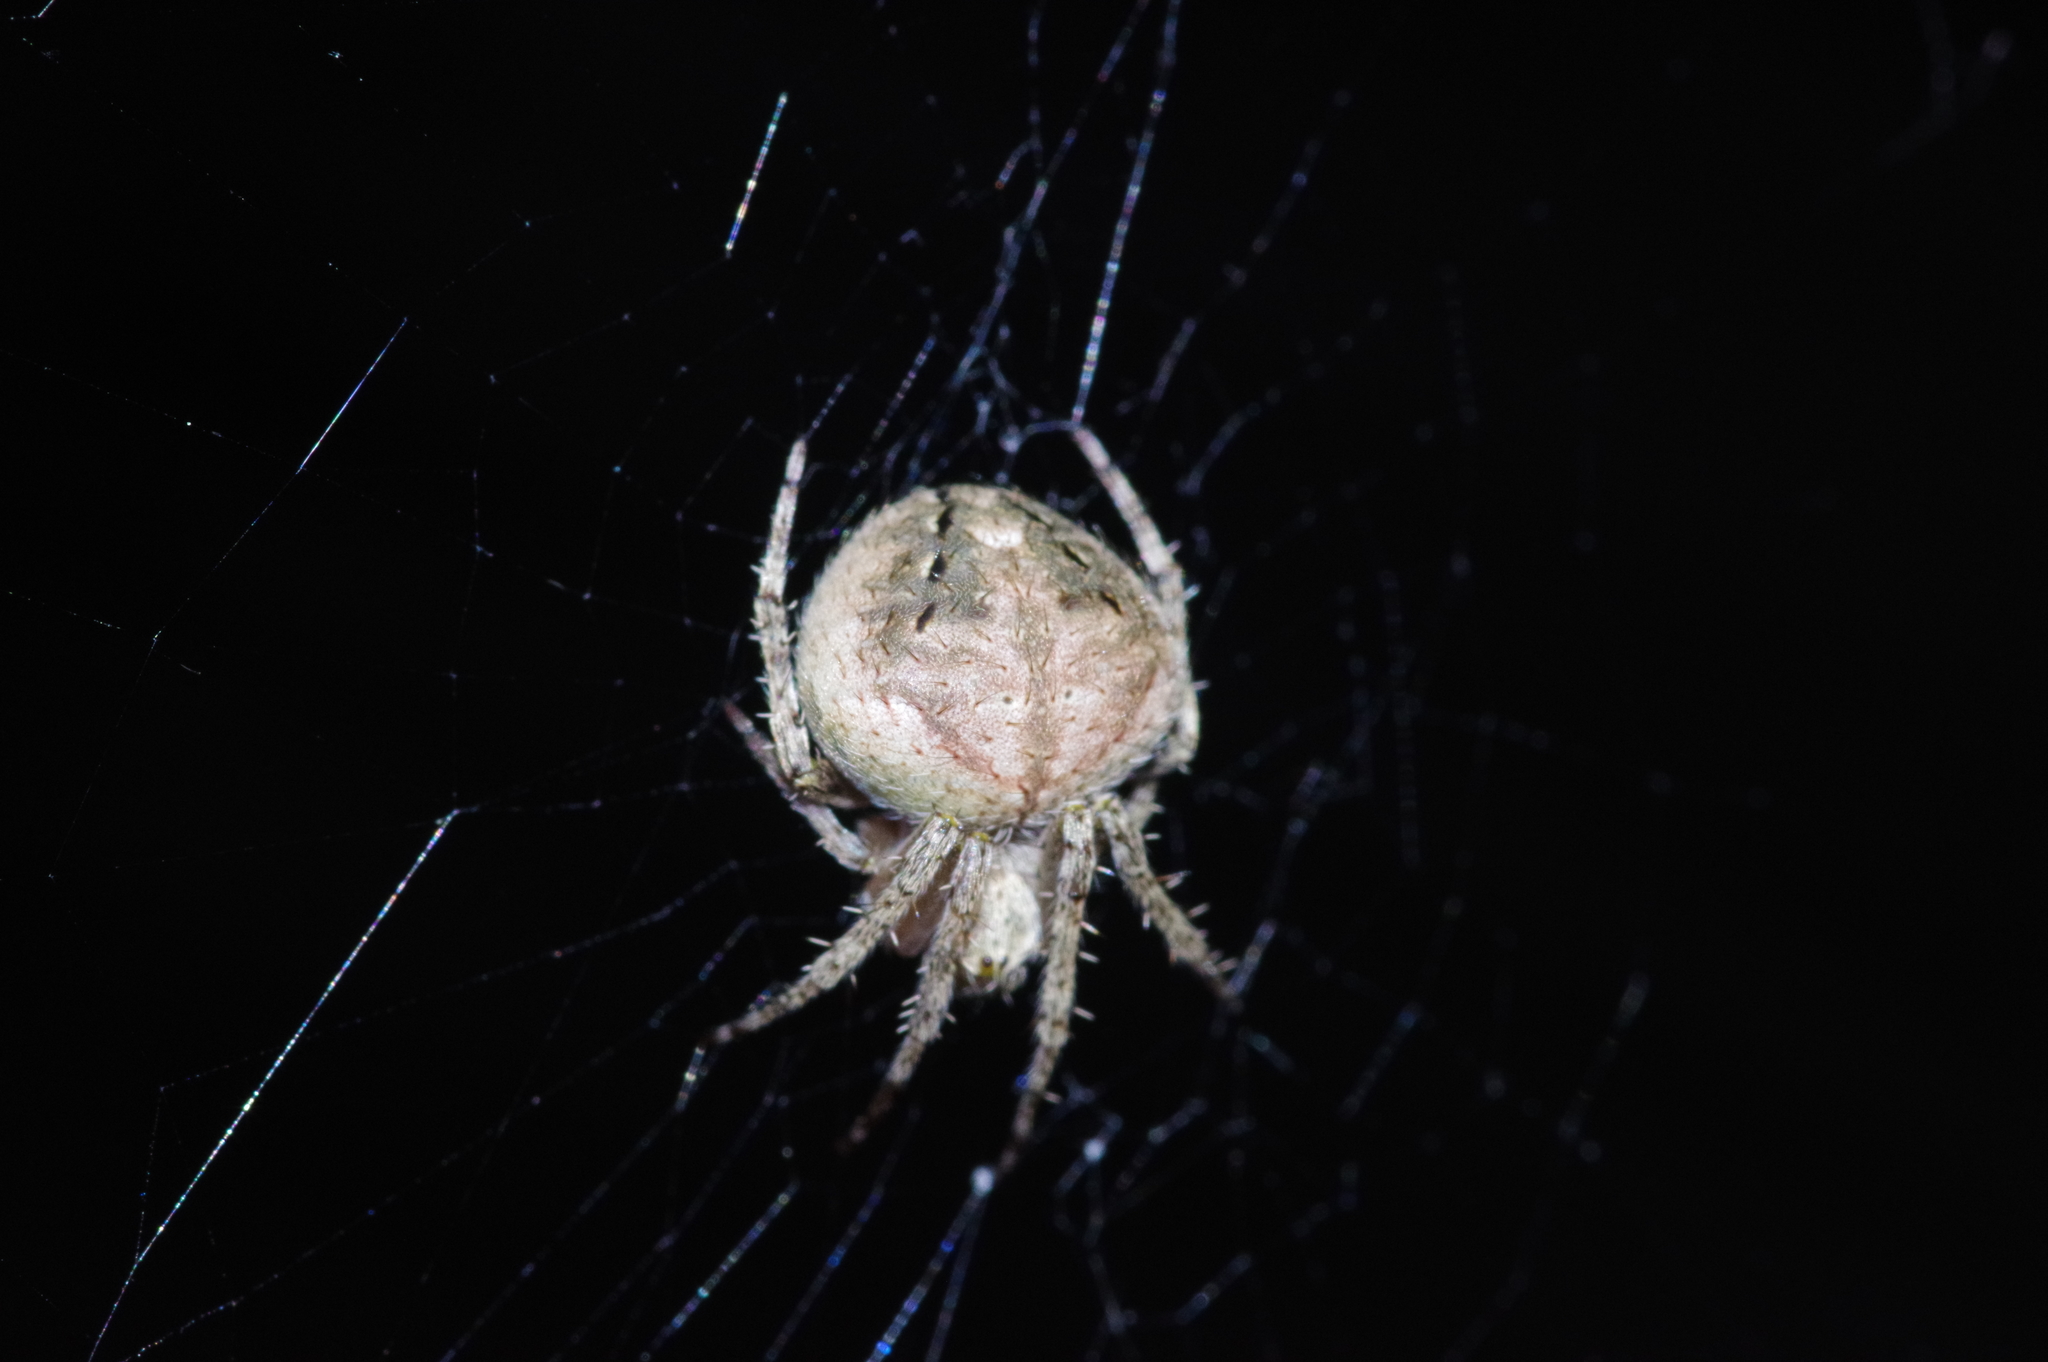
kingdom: Animalia
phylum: Arthropoda
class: Arachnida
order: Araneae
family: Araneidae
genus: Neoscona
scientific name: Neoscona nautica
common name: Orb weavers
